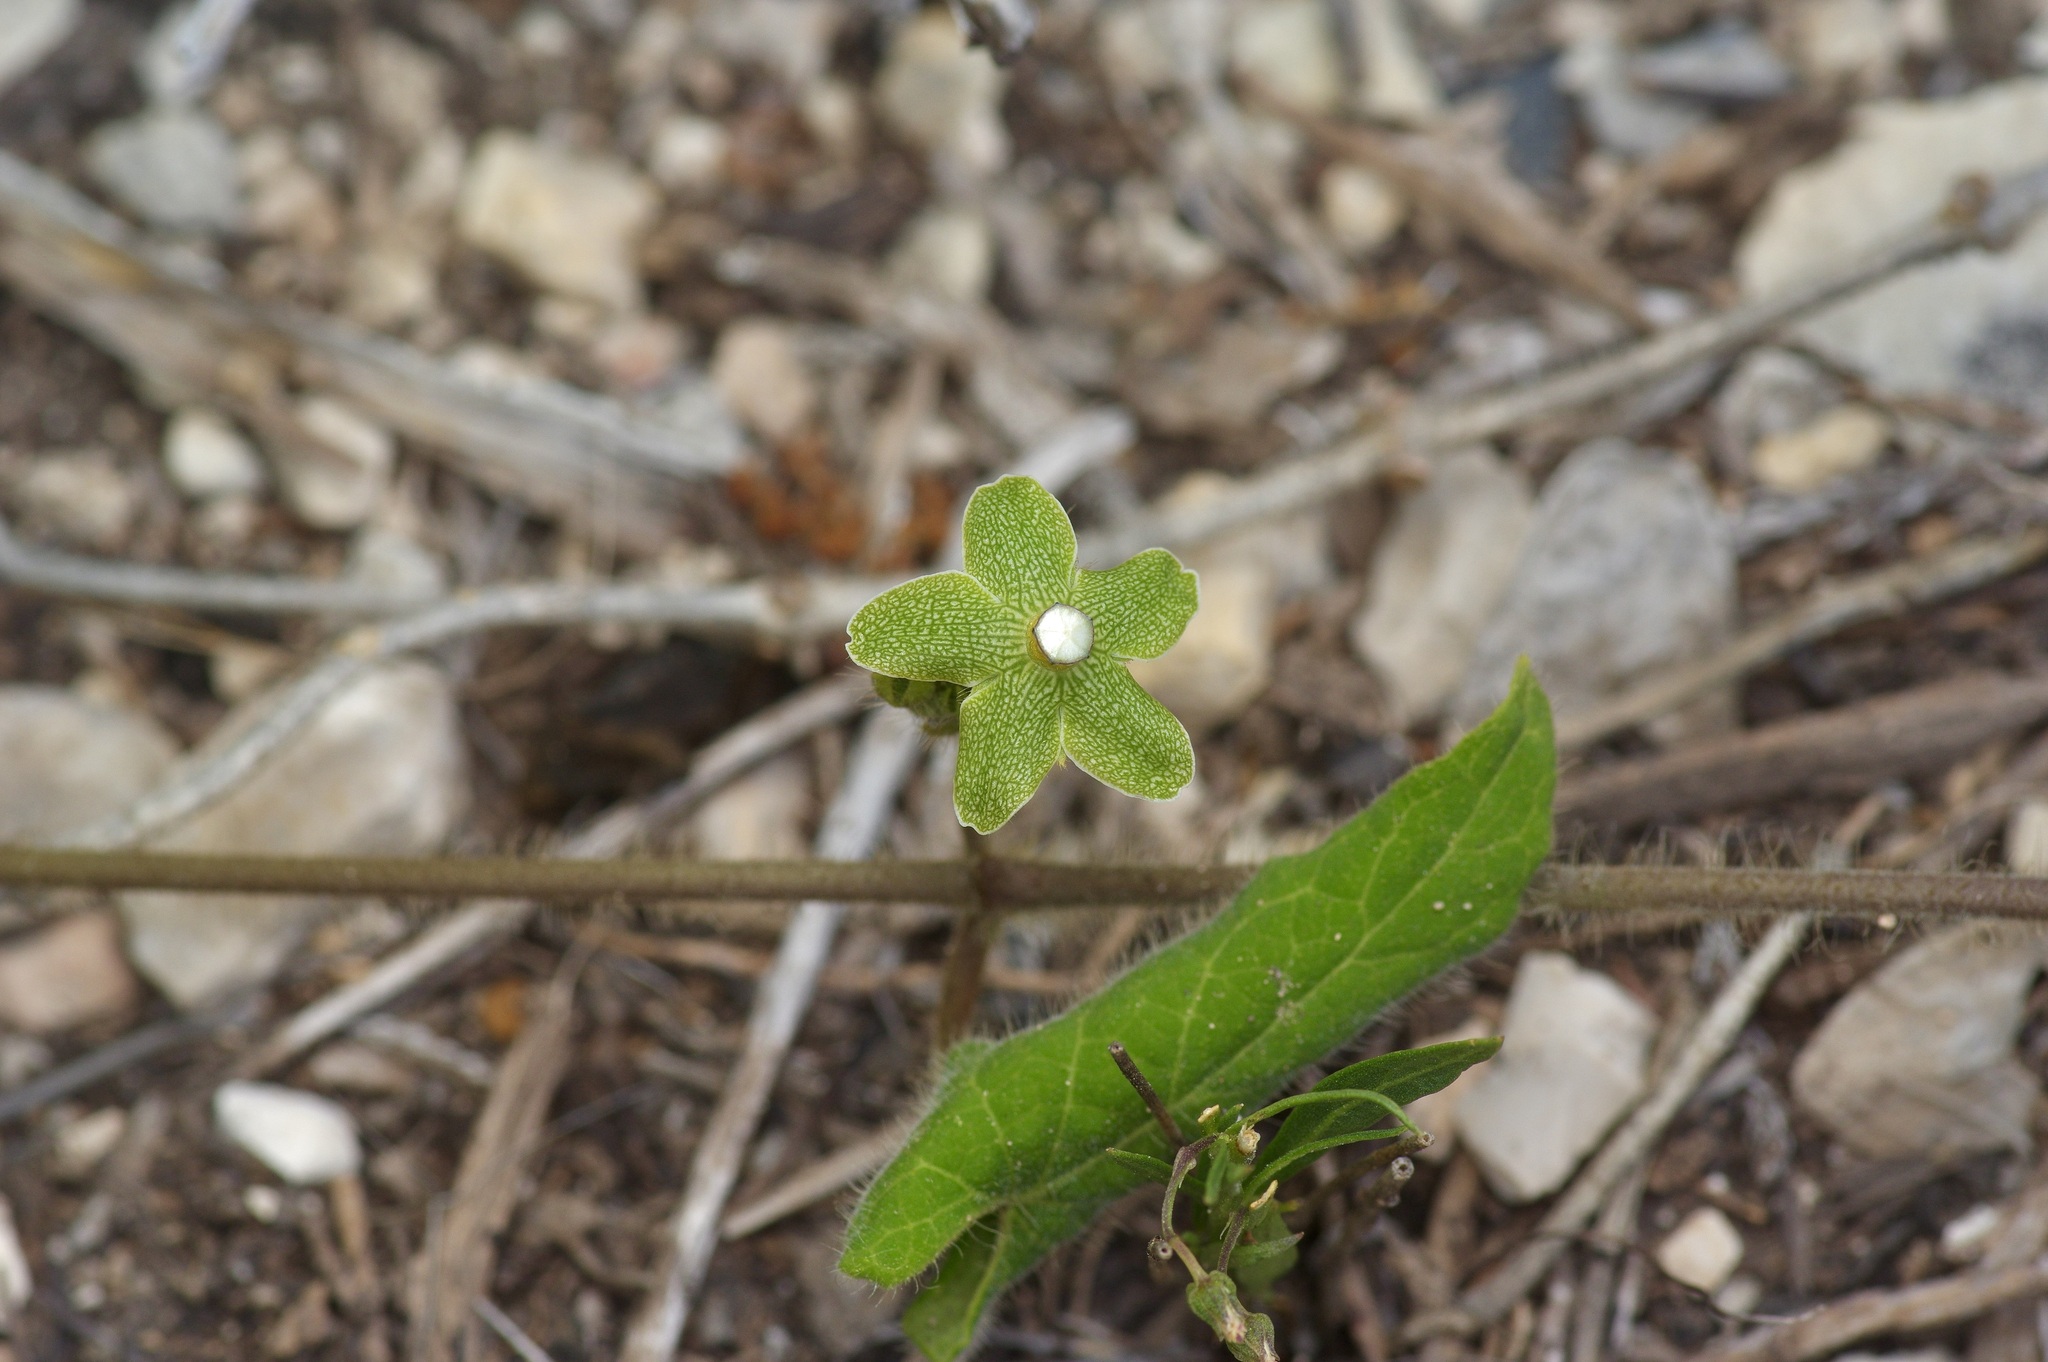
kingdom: Plantae
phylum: Tracheophyta
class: Magnoliopsida
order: Gentianales
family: Apocynaceae
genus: Dictyanthus
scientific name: Dictyanthus reticulatus
